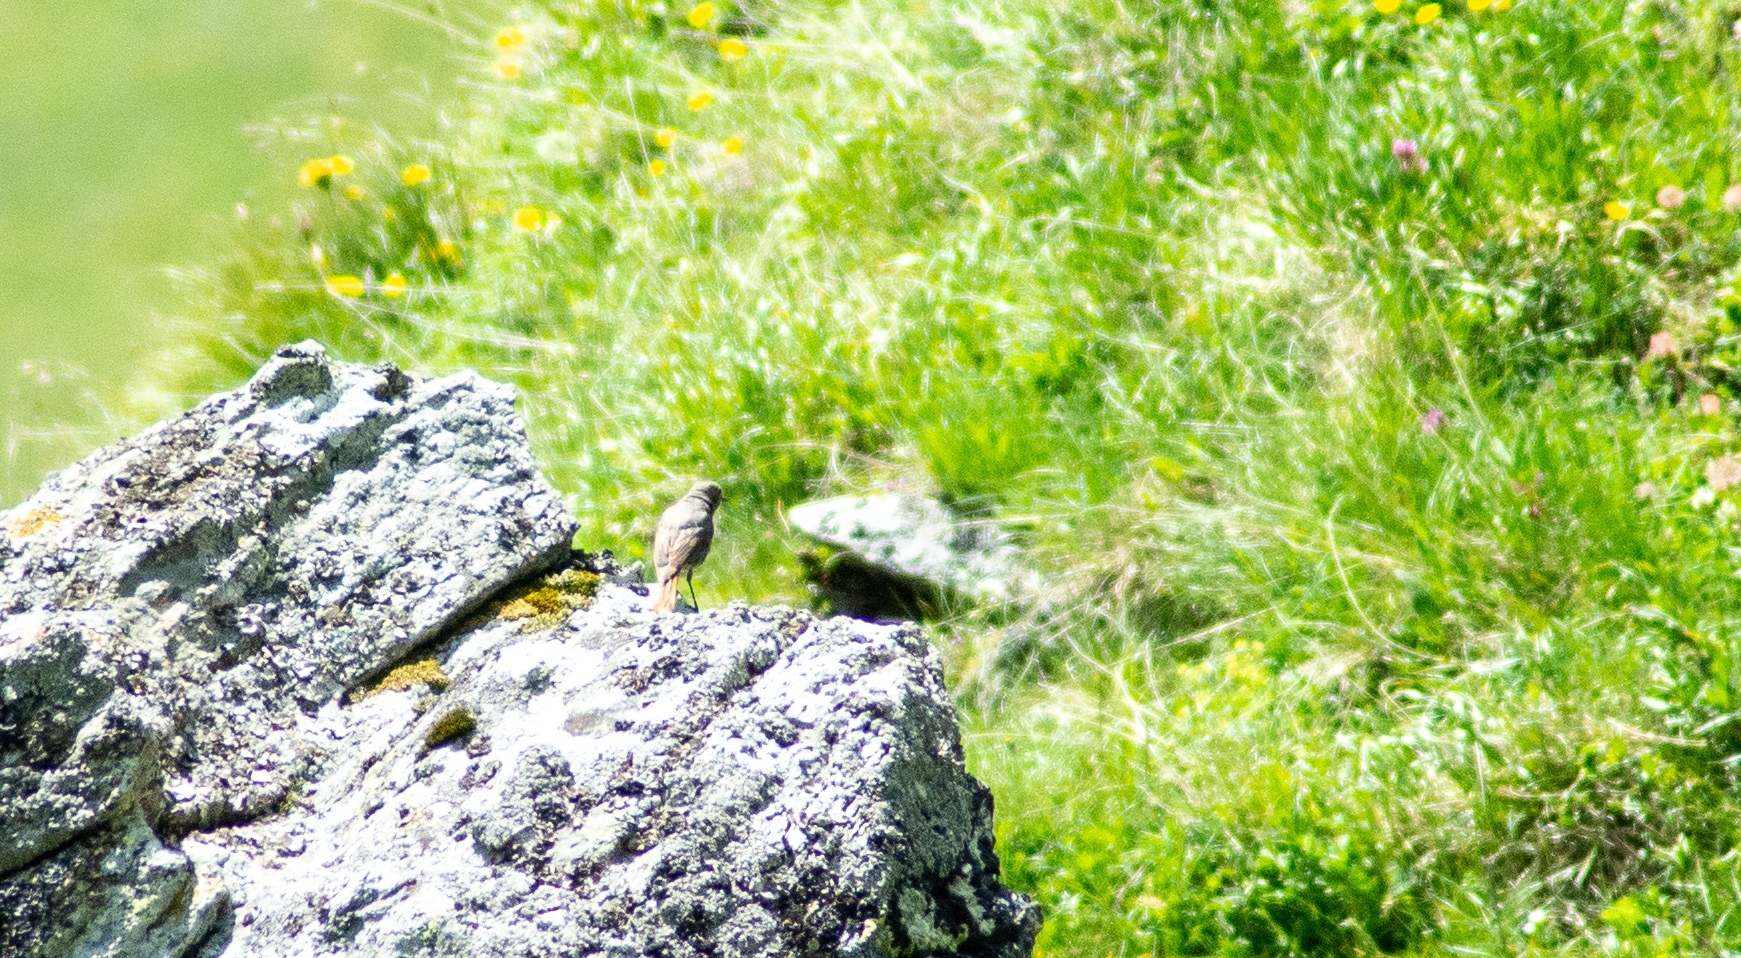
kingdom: Animalia
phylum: Chordata
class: Aves
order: Passeriformes
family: Muscicapidae
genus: Phoenicurus
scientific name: Phoenicurus ochruros
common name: Black redstart
